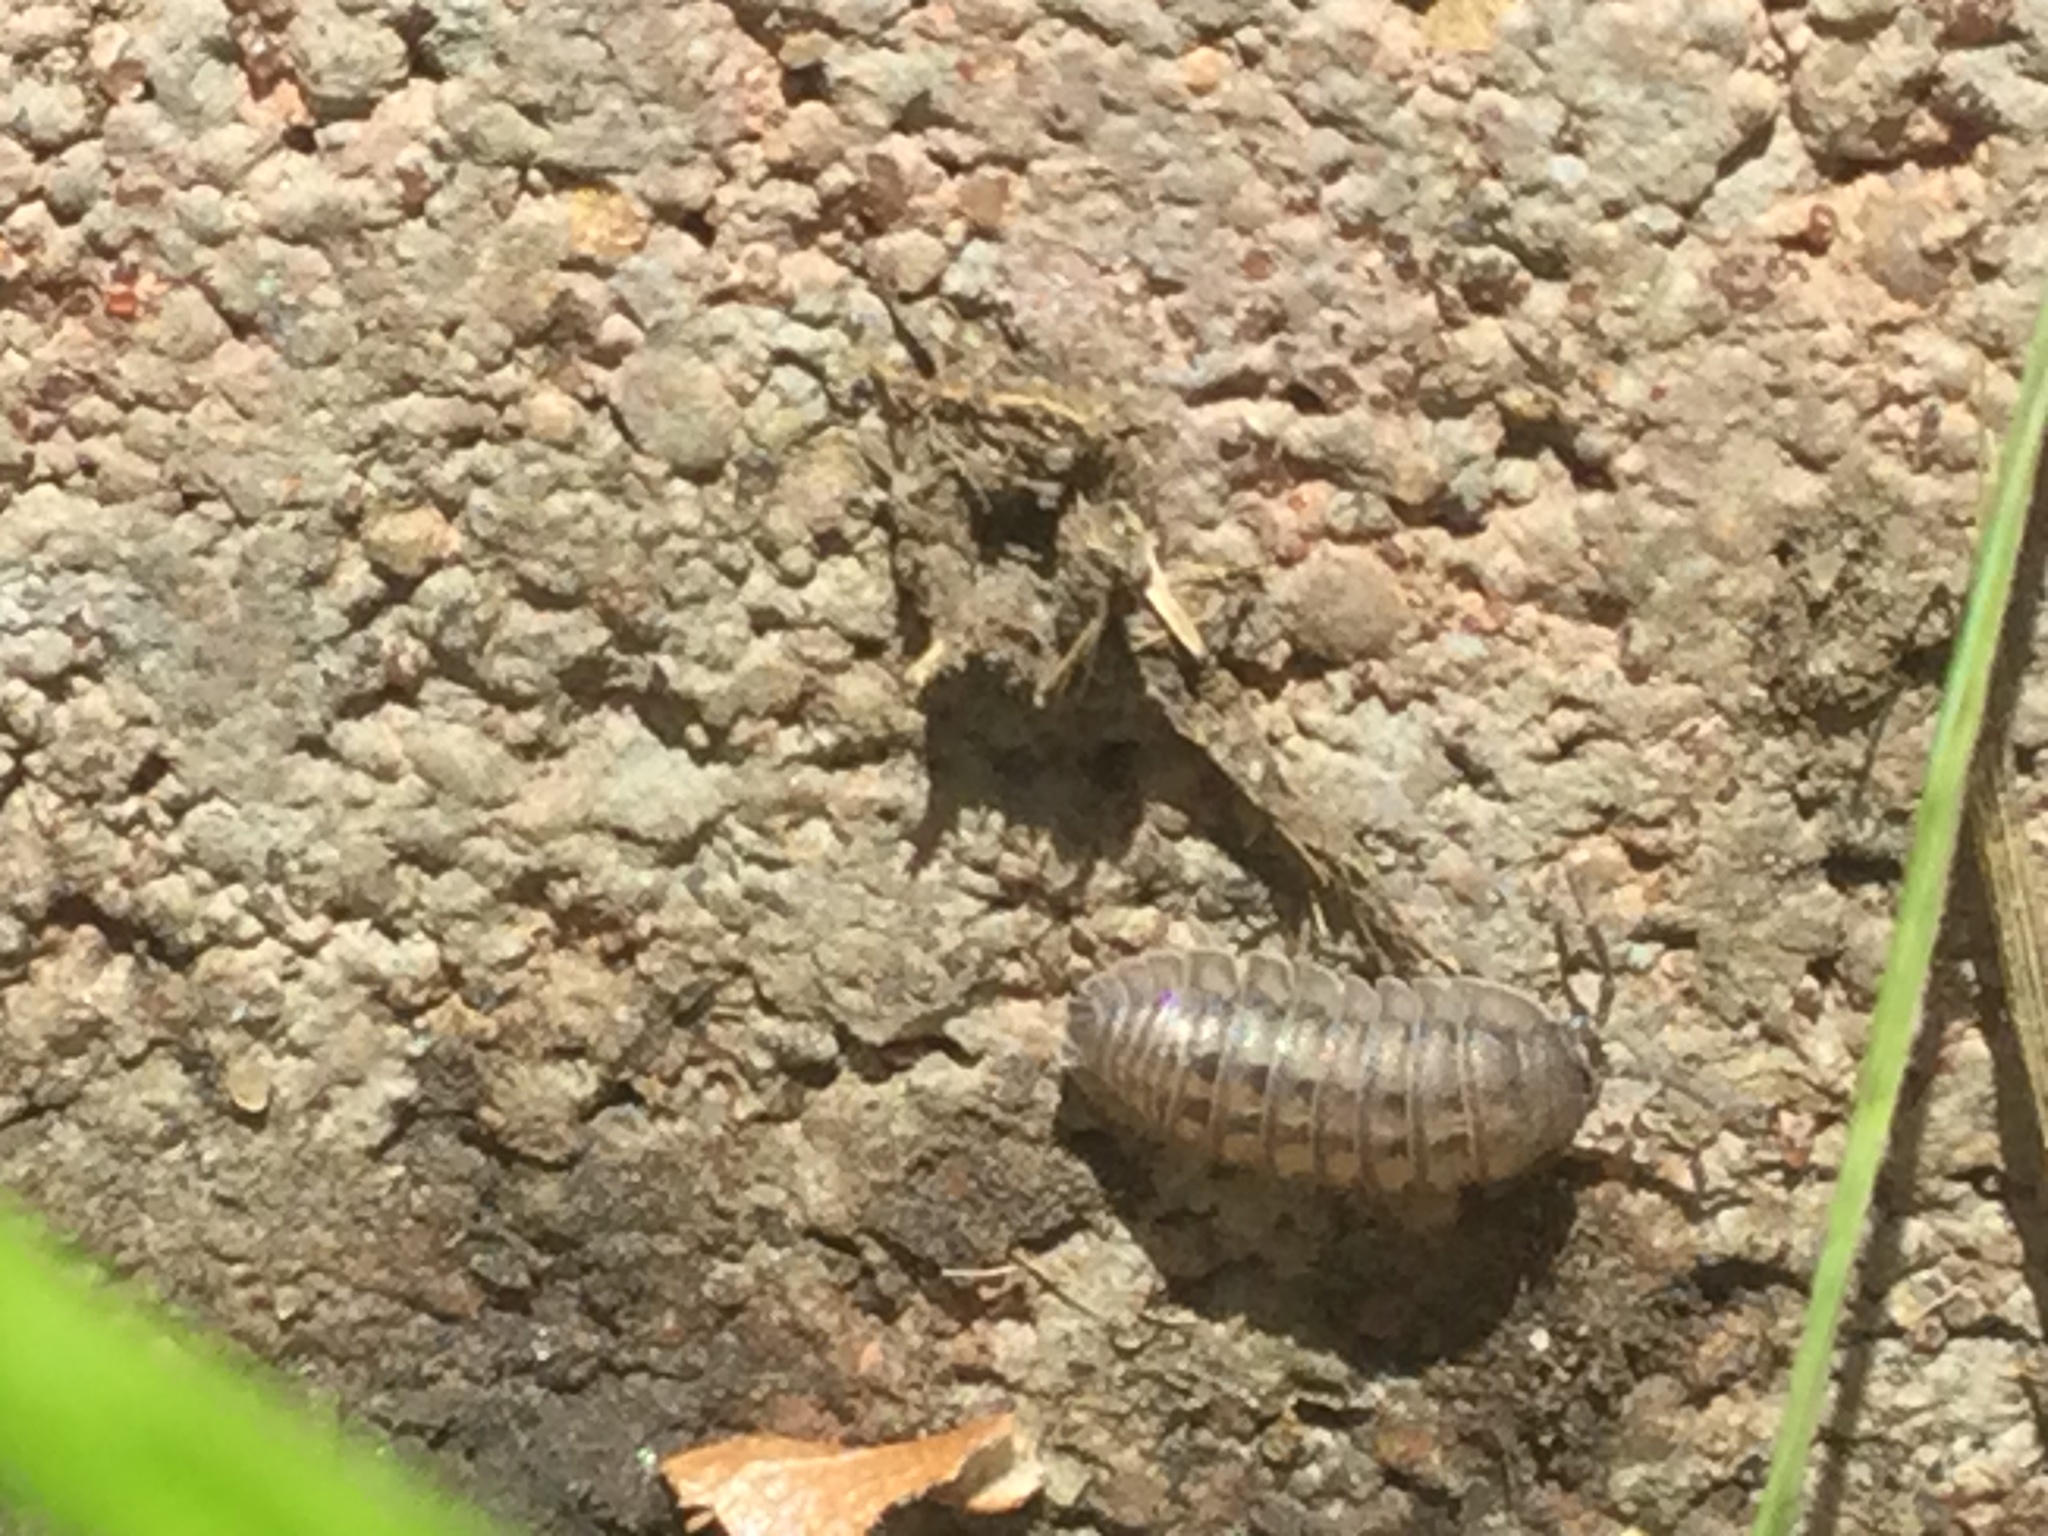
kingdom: Animalia
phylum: Arthropoda
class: Malacostraca
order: Isopoda
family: Armadillidiidae
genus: Armadillidium
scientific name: Armadillidium nasatum
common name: Isopod
